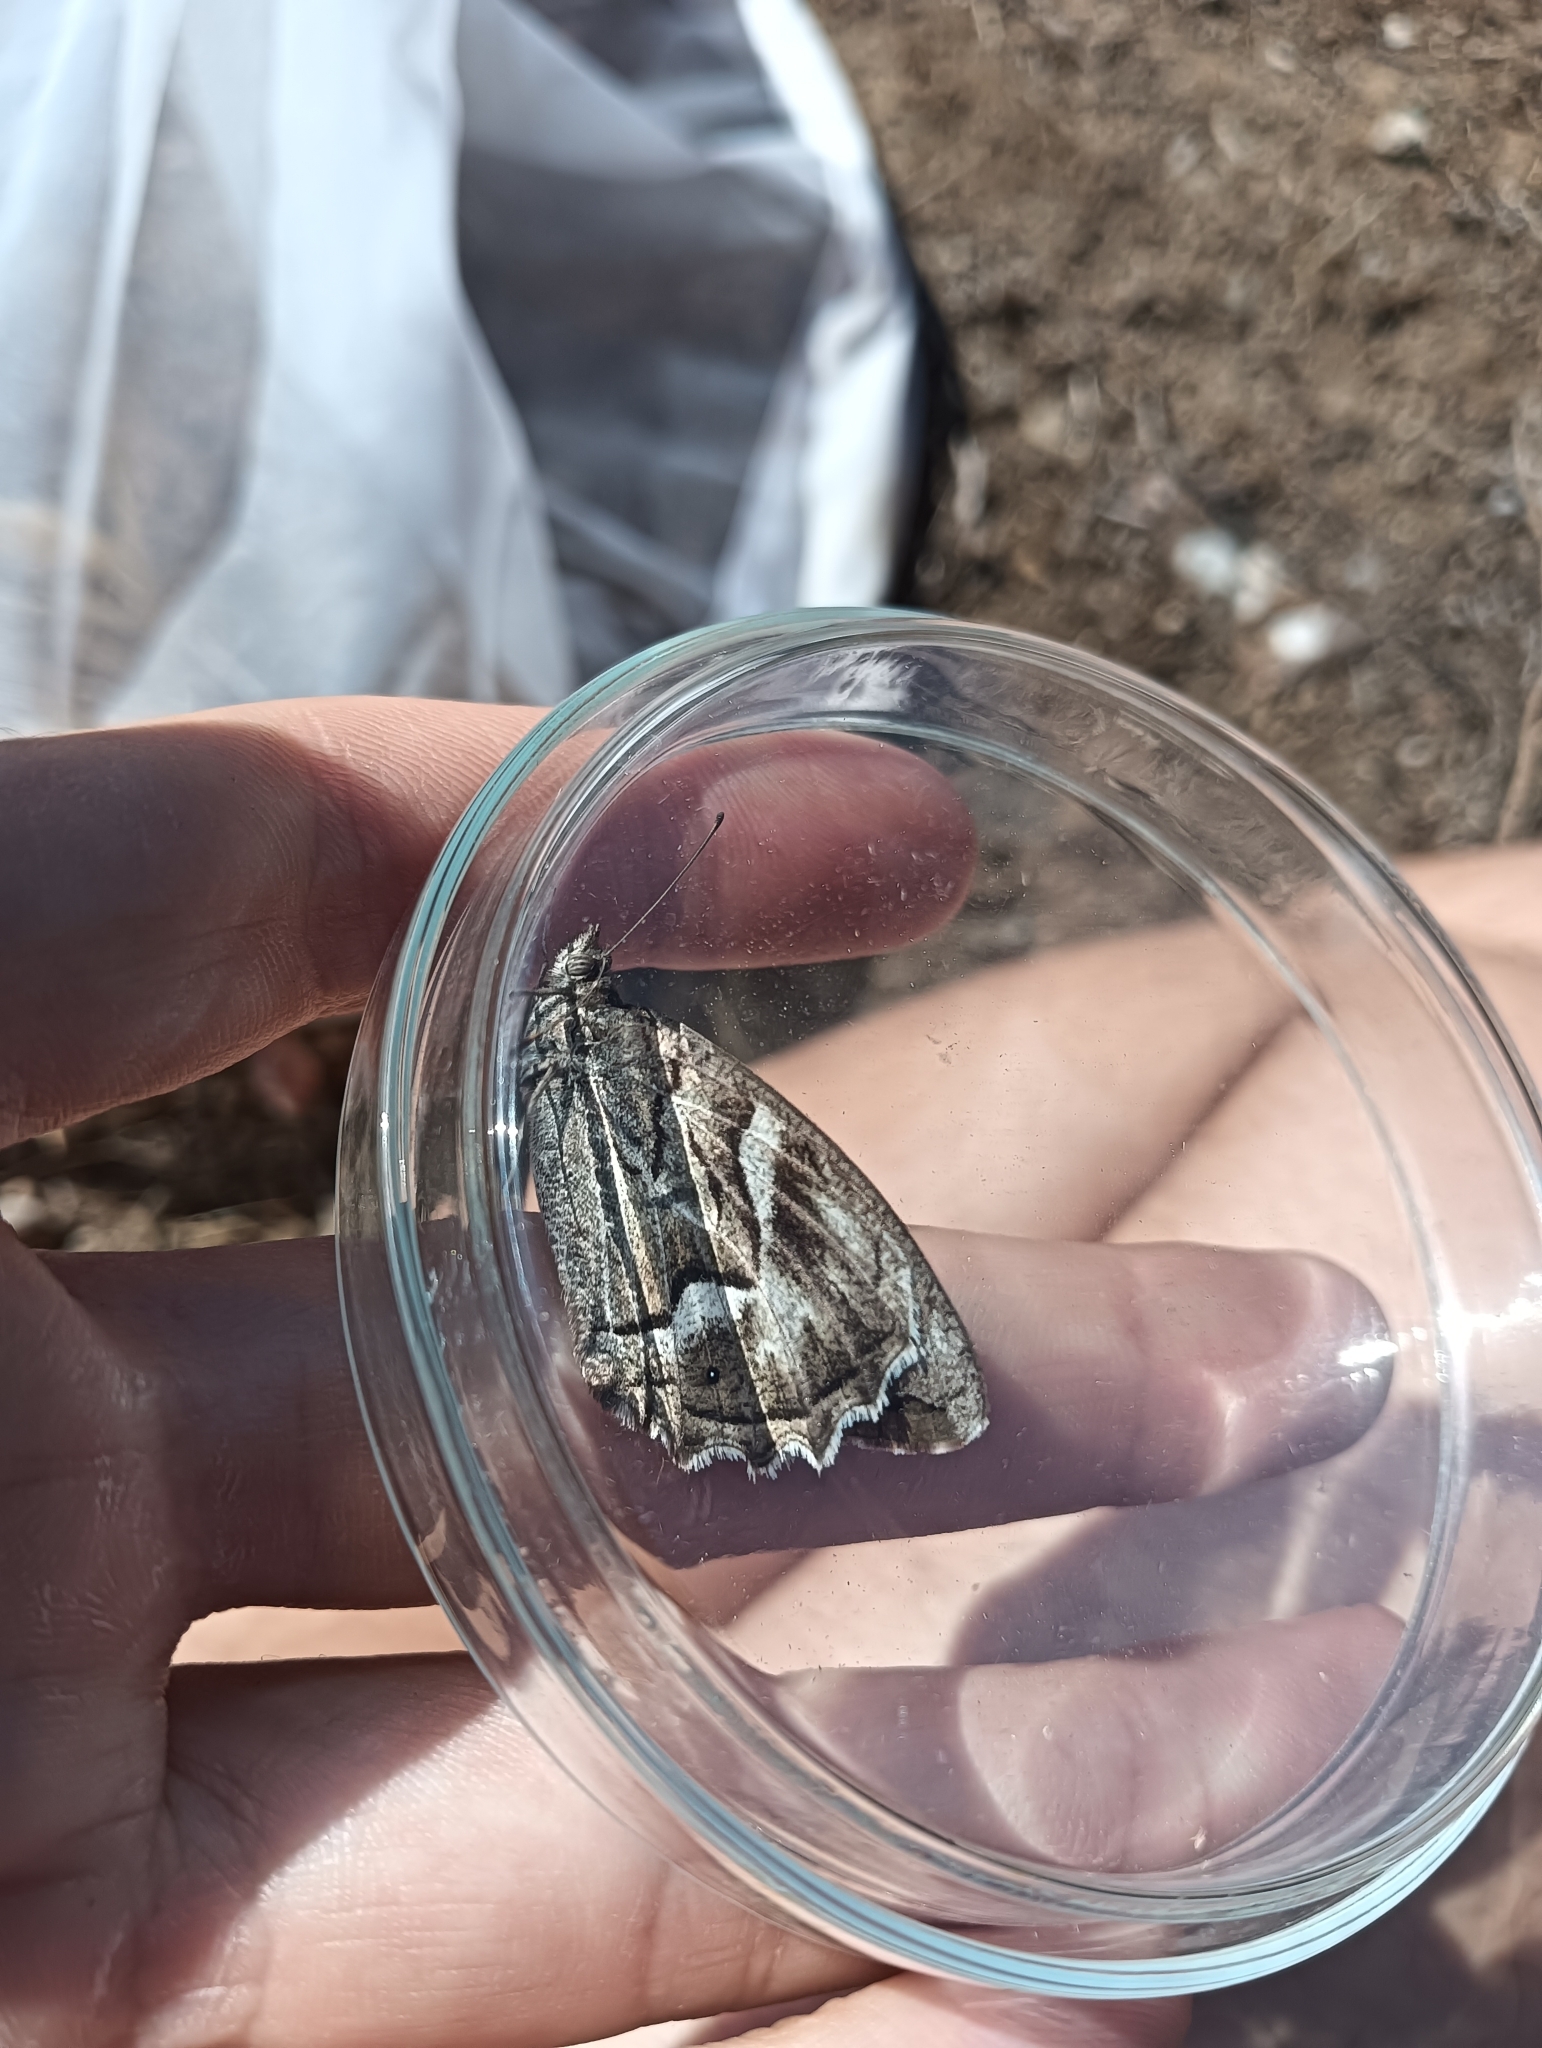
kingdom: Animalia
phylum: Arthropoda
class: Insecta
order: Lepidoptera
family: Nymphalidae
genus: Hipparchia
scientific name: Hipparchia fidia
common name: Striped grayling
